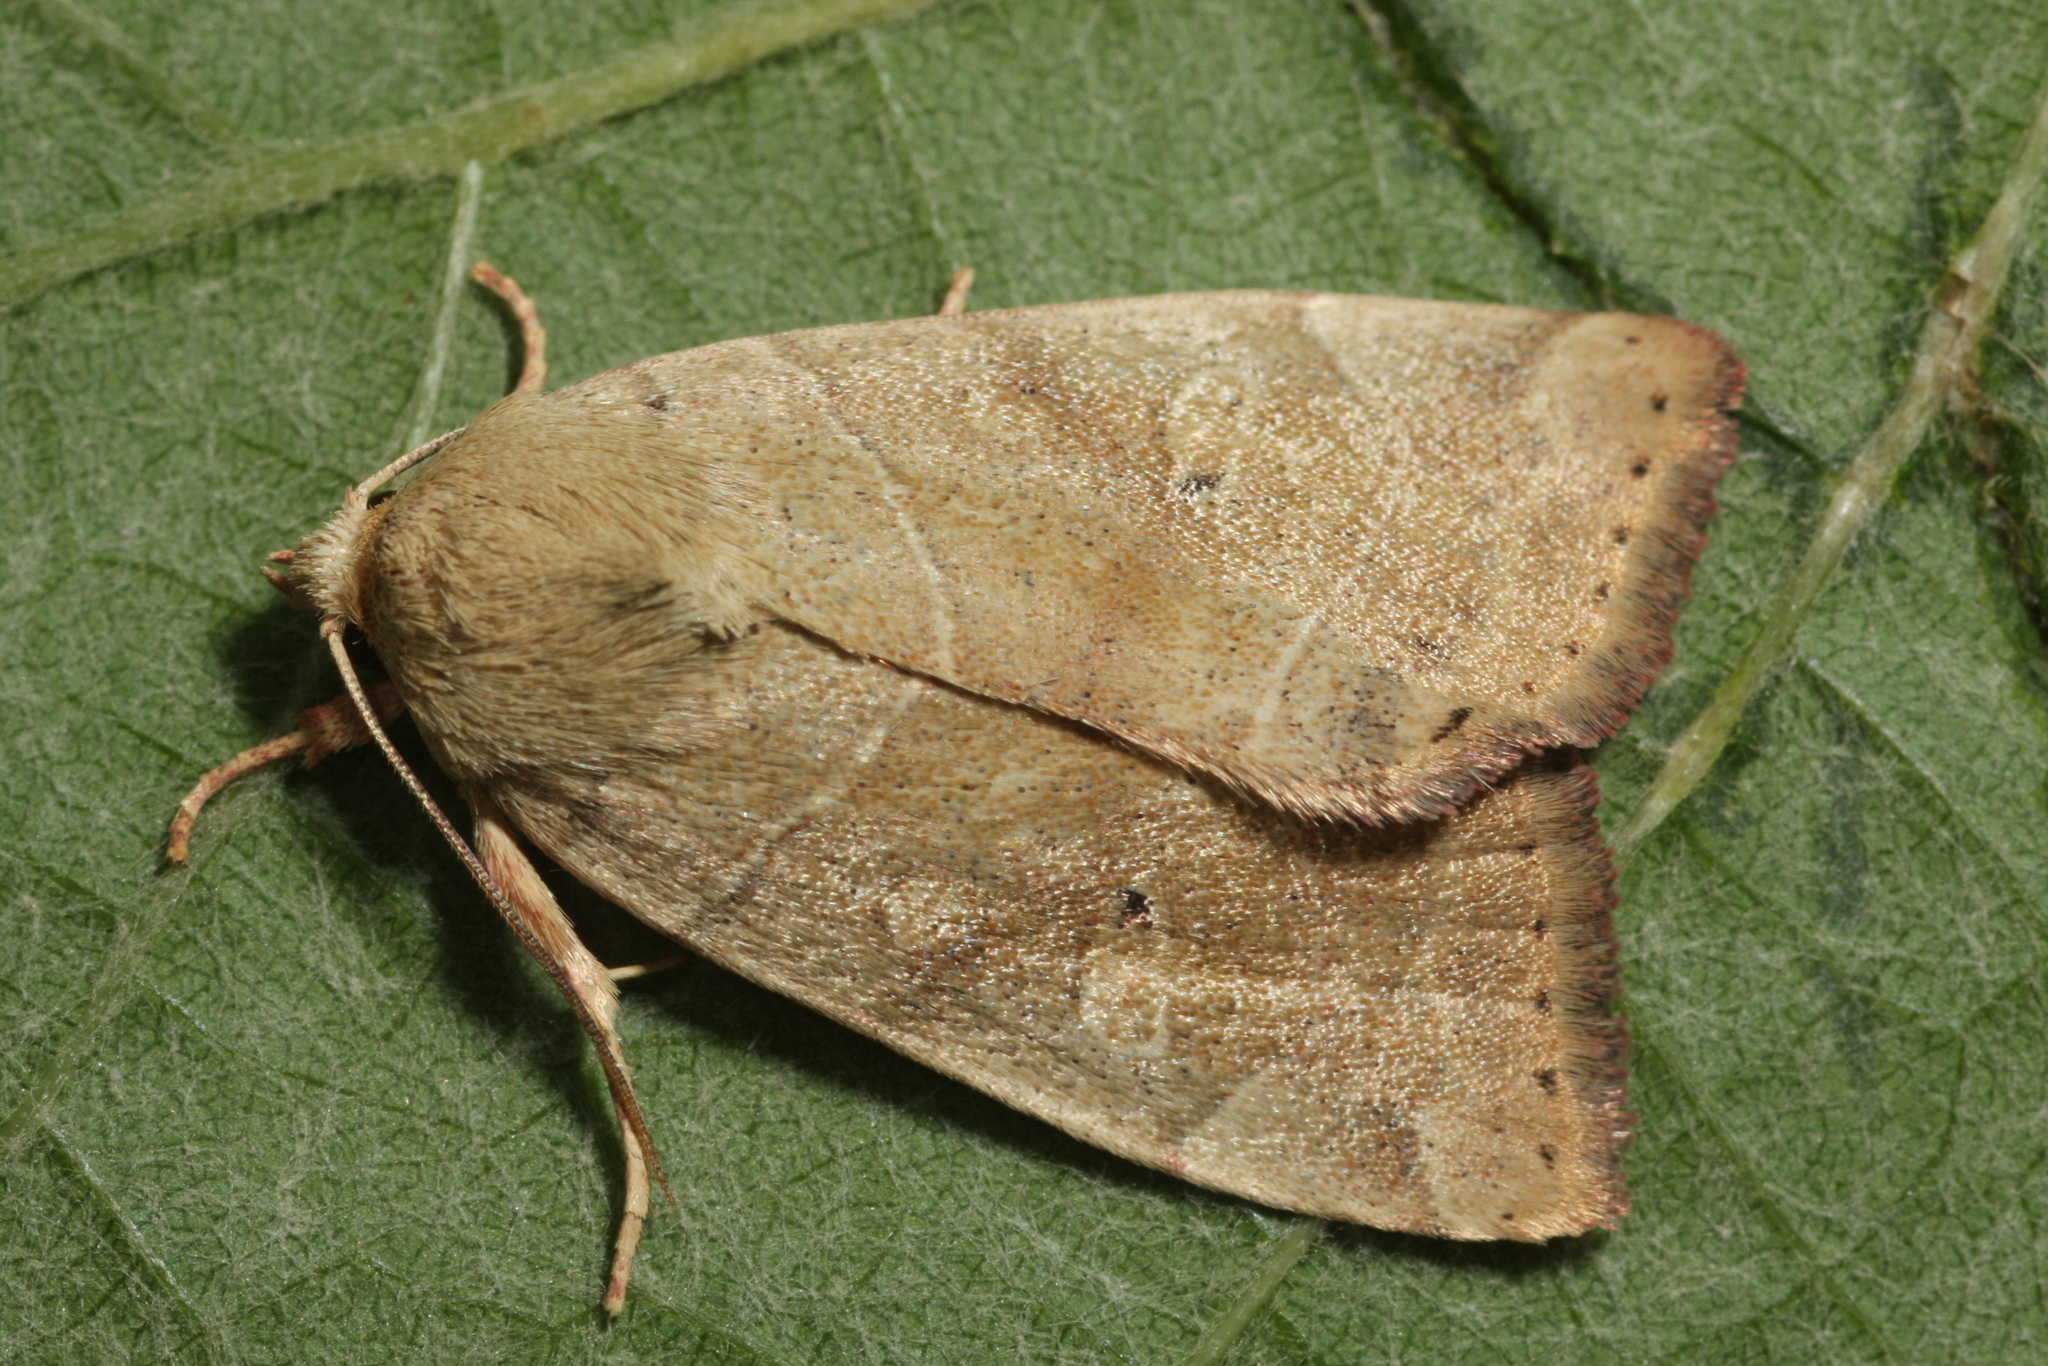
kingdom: Animalia
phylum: Arthropoda
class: Insecta
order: Lepidoptera
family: Noctuidae
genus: Cosmia
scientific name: Cosmia trapezina
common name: Dun-bar
